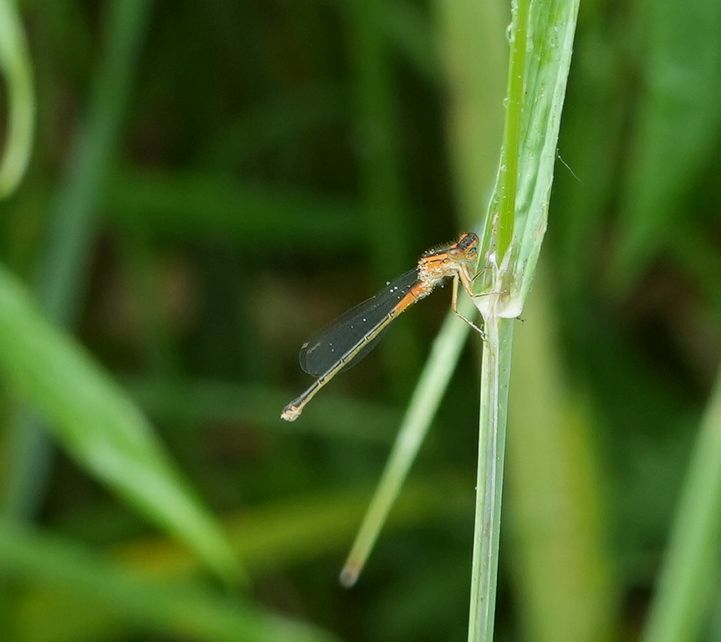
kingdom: Animalia
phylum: Arthropoda
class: Insecta
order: Odonata
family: Coenagrionidae
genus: Ischnura
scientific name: Ischnura verticalis
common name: Eastern forktail
